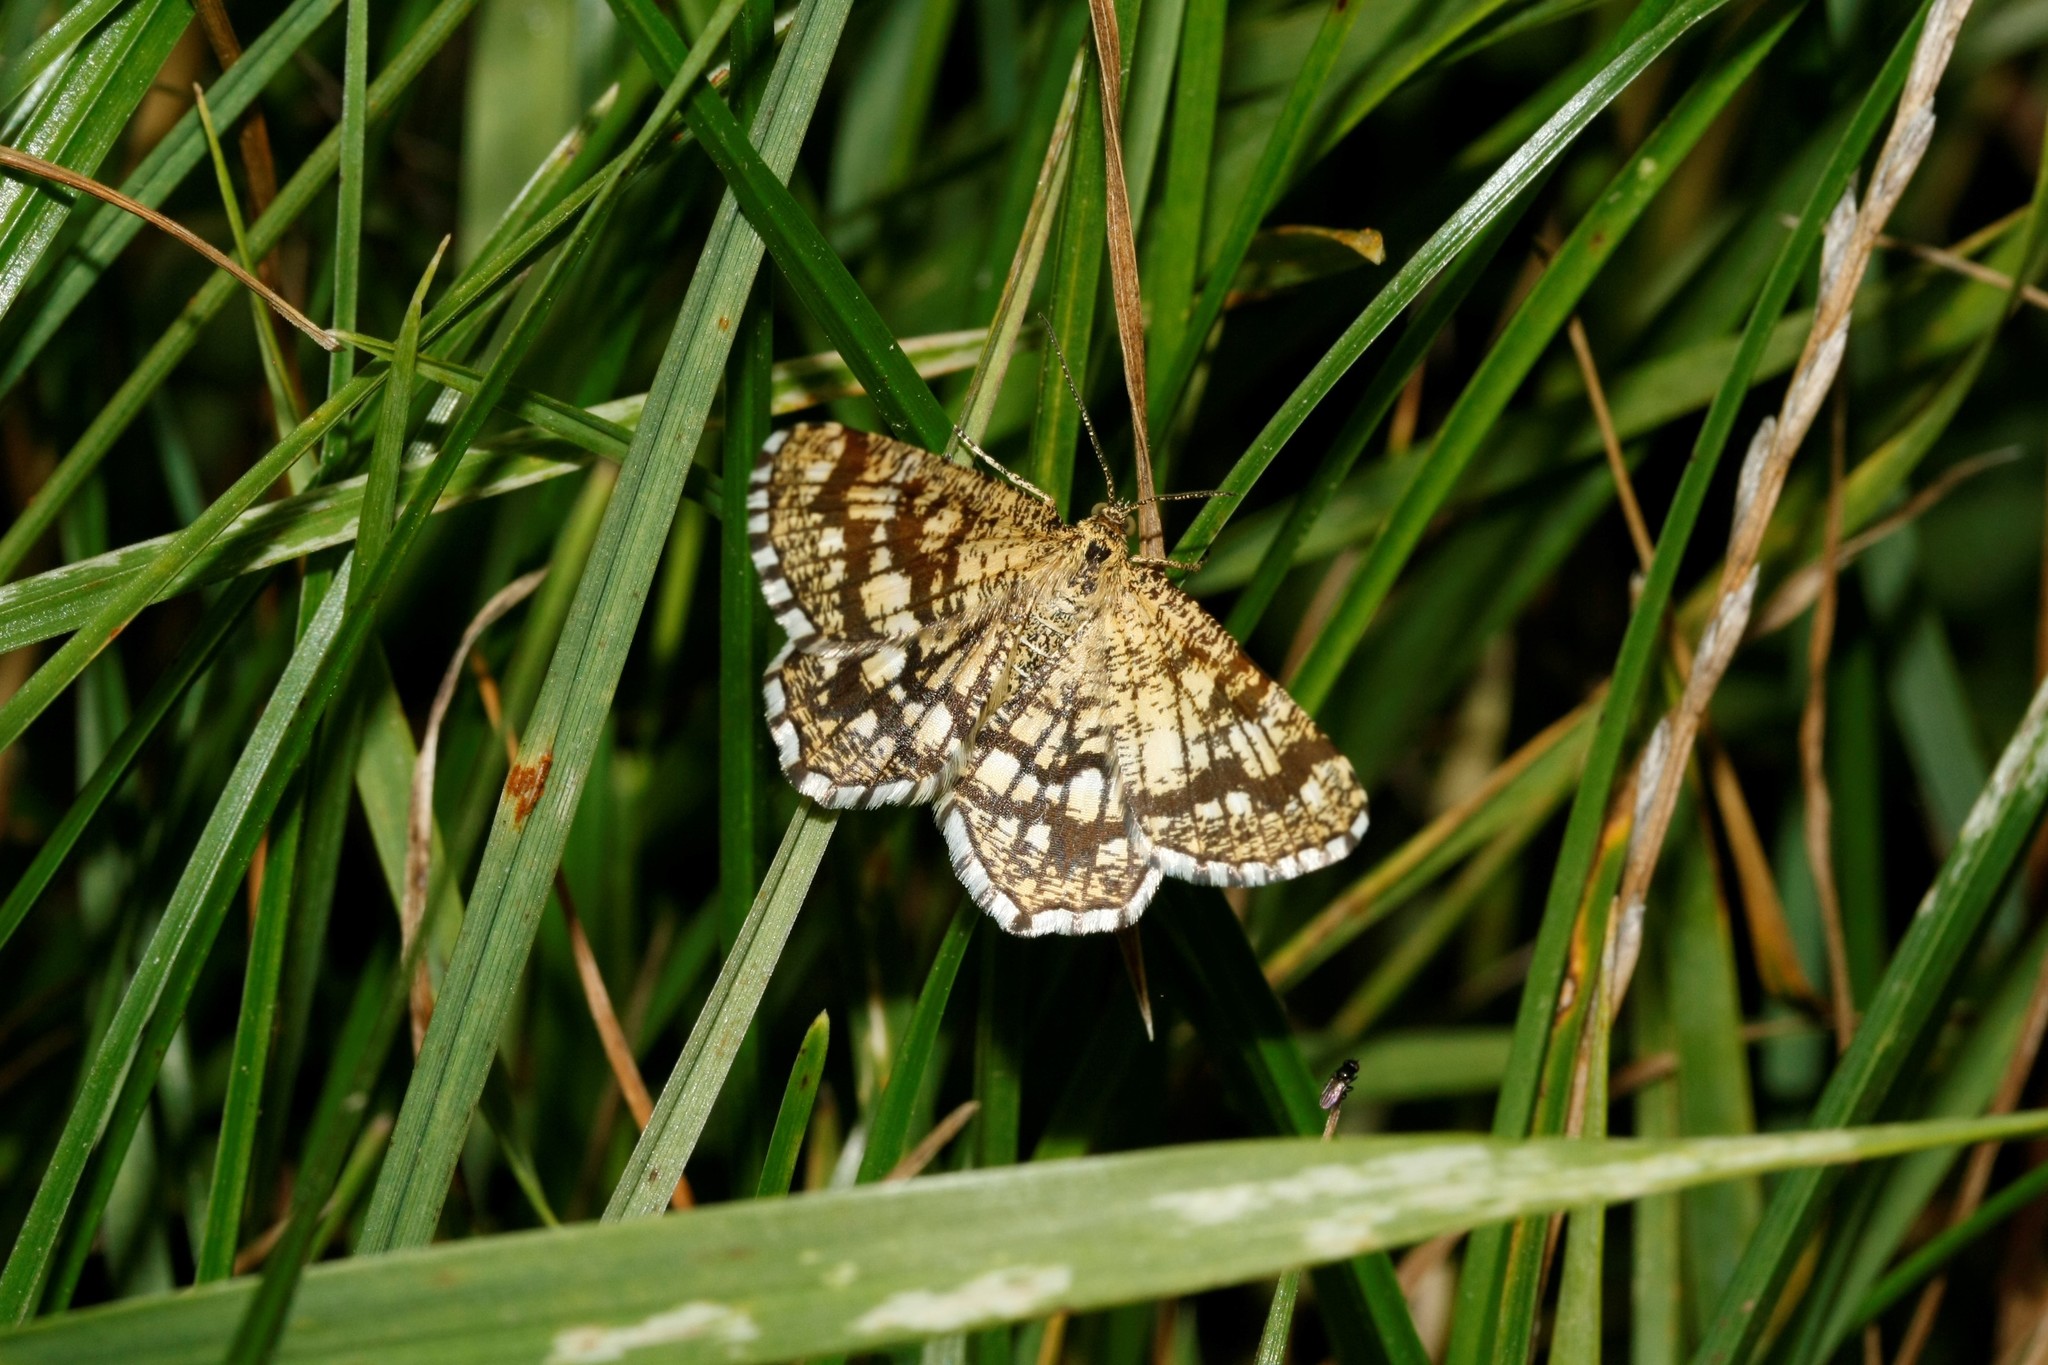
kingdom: Animalia
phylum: Arthropoda
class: Insecta
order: Lepidoptera
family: Geometridae
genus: Chiasmia
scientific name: Chiasmia clathrata
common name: Latticed heath
